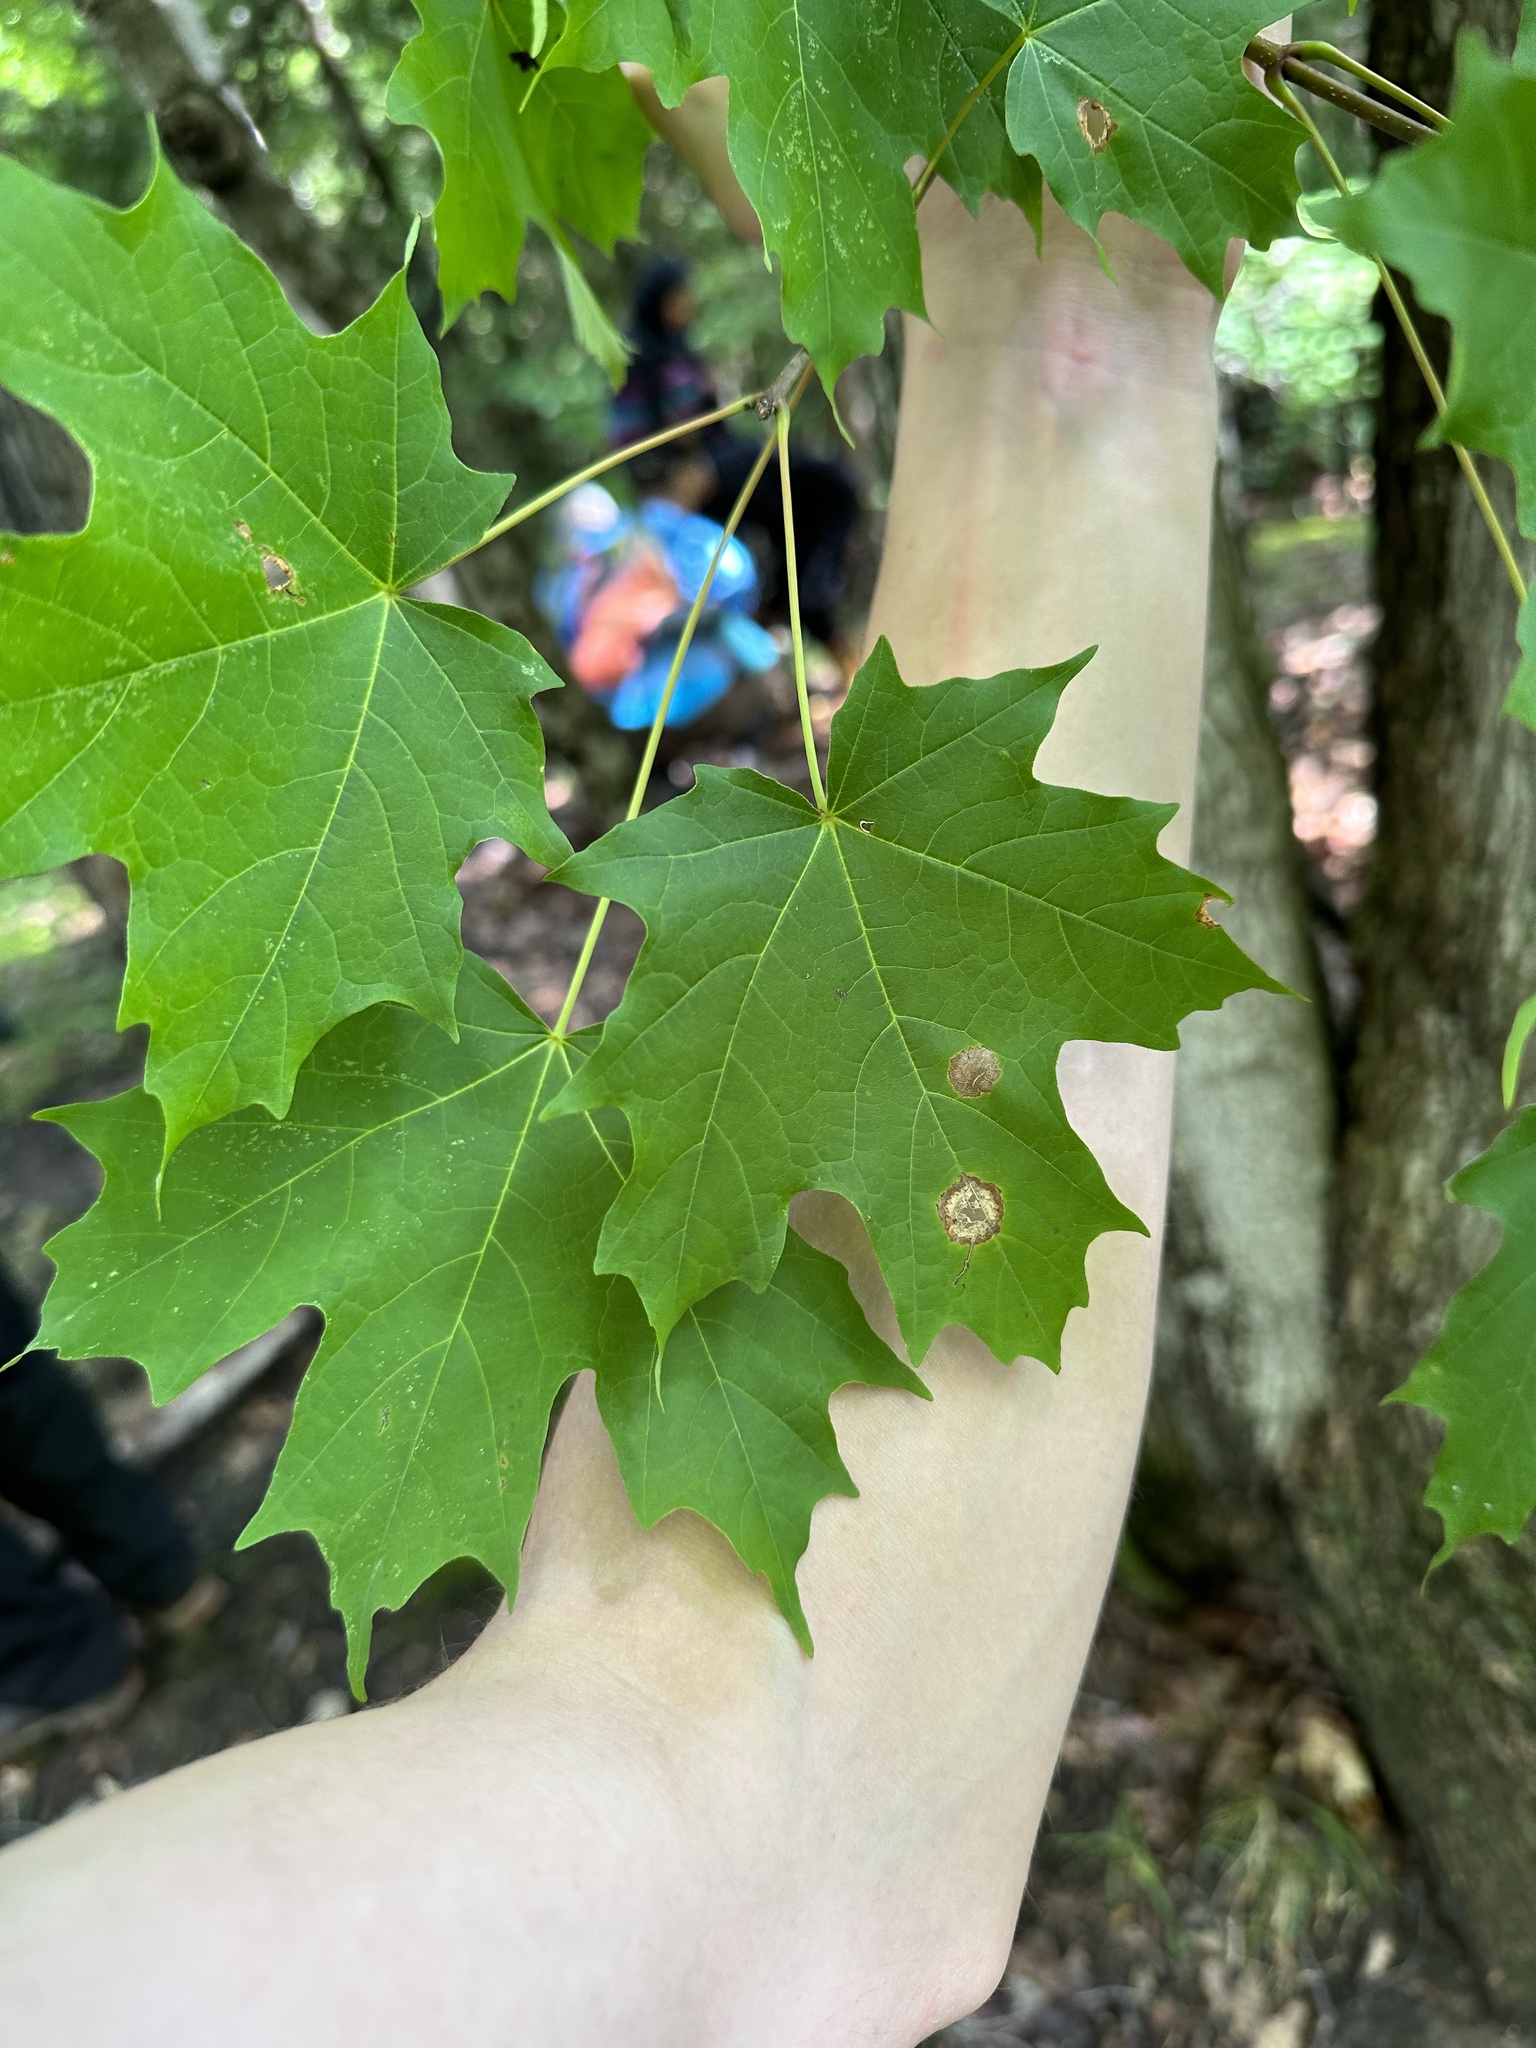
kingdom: Plantae
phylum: Tracheophyta
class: Magnoliopsida
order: Sapindales
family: Sapindaceae
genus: Acer
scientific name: Acer saccharum
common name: Sugar maple
